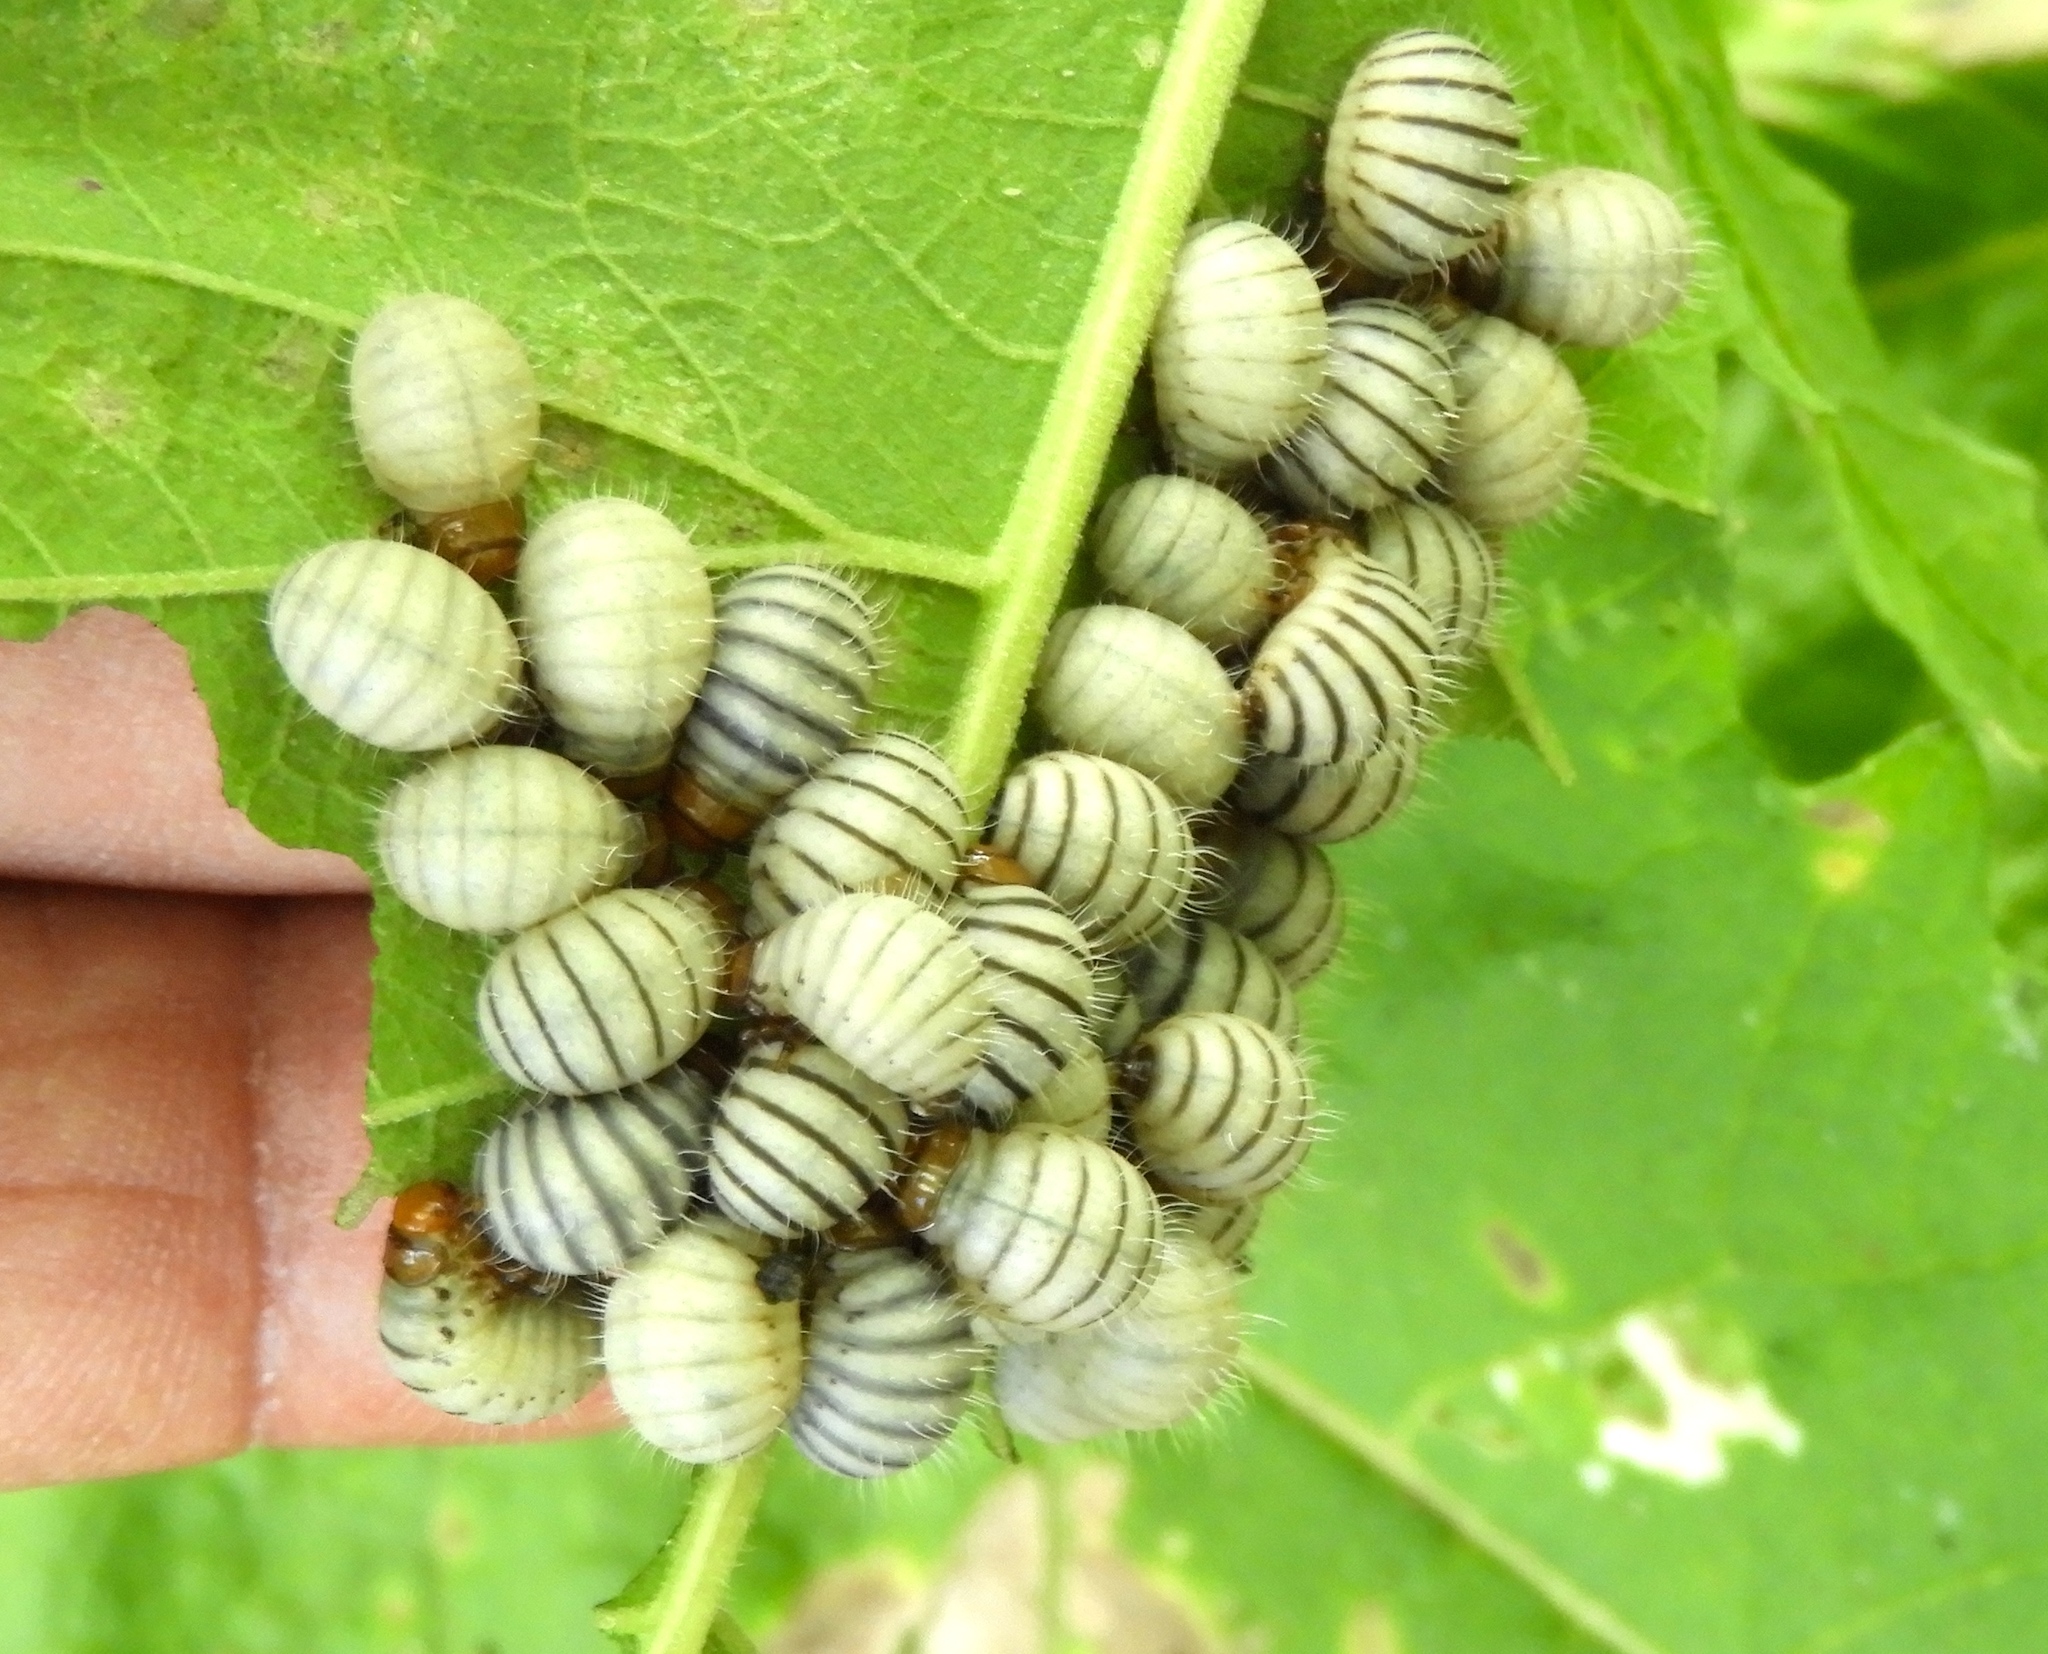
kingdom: Animalia
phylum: Arthropoda
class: Insecta
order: Coleoptera
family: Chrysomelidae
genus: Leptinotarsa
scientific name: Leptinotarsa
